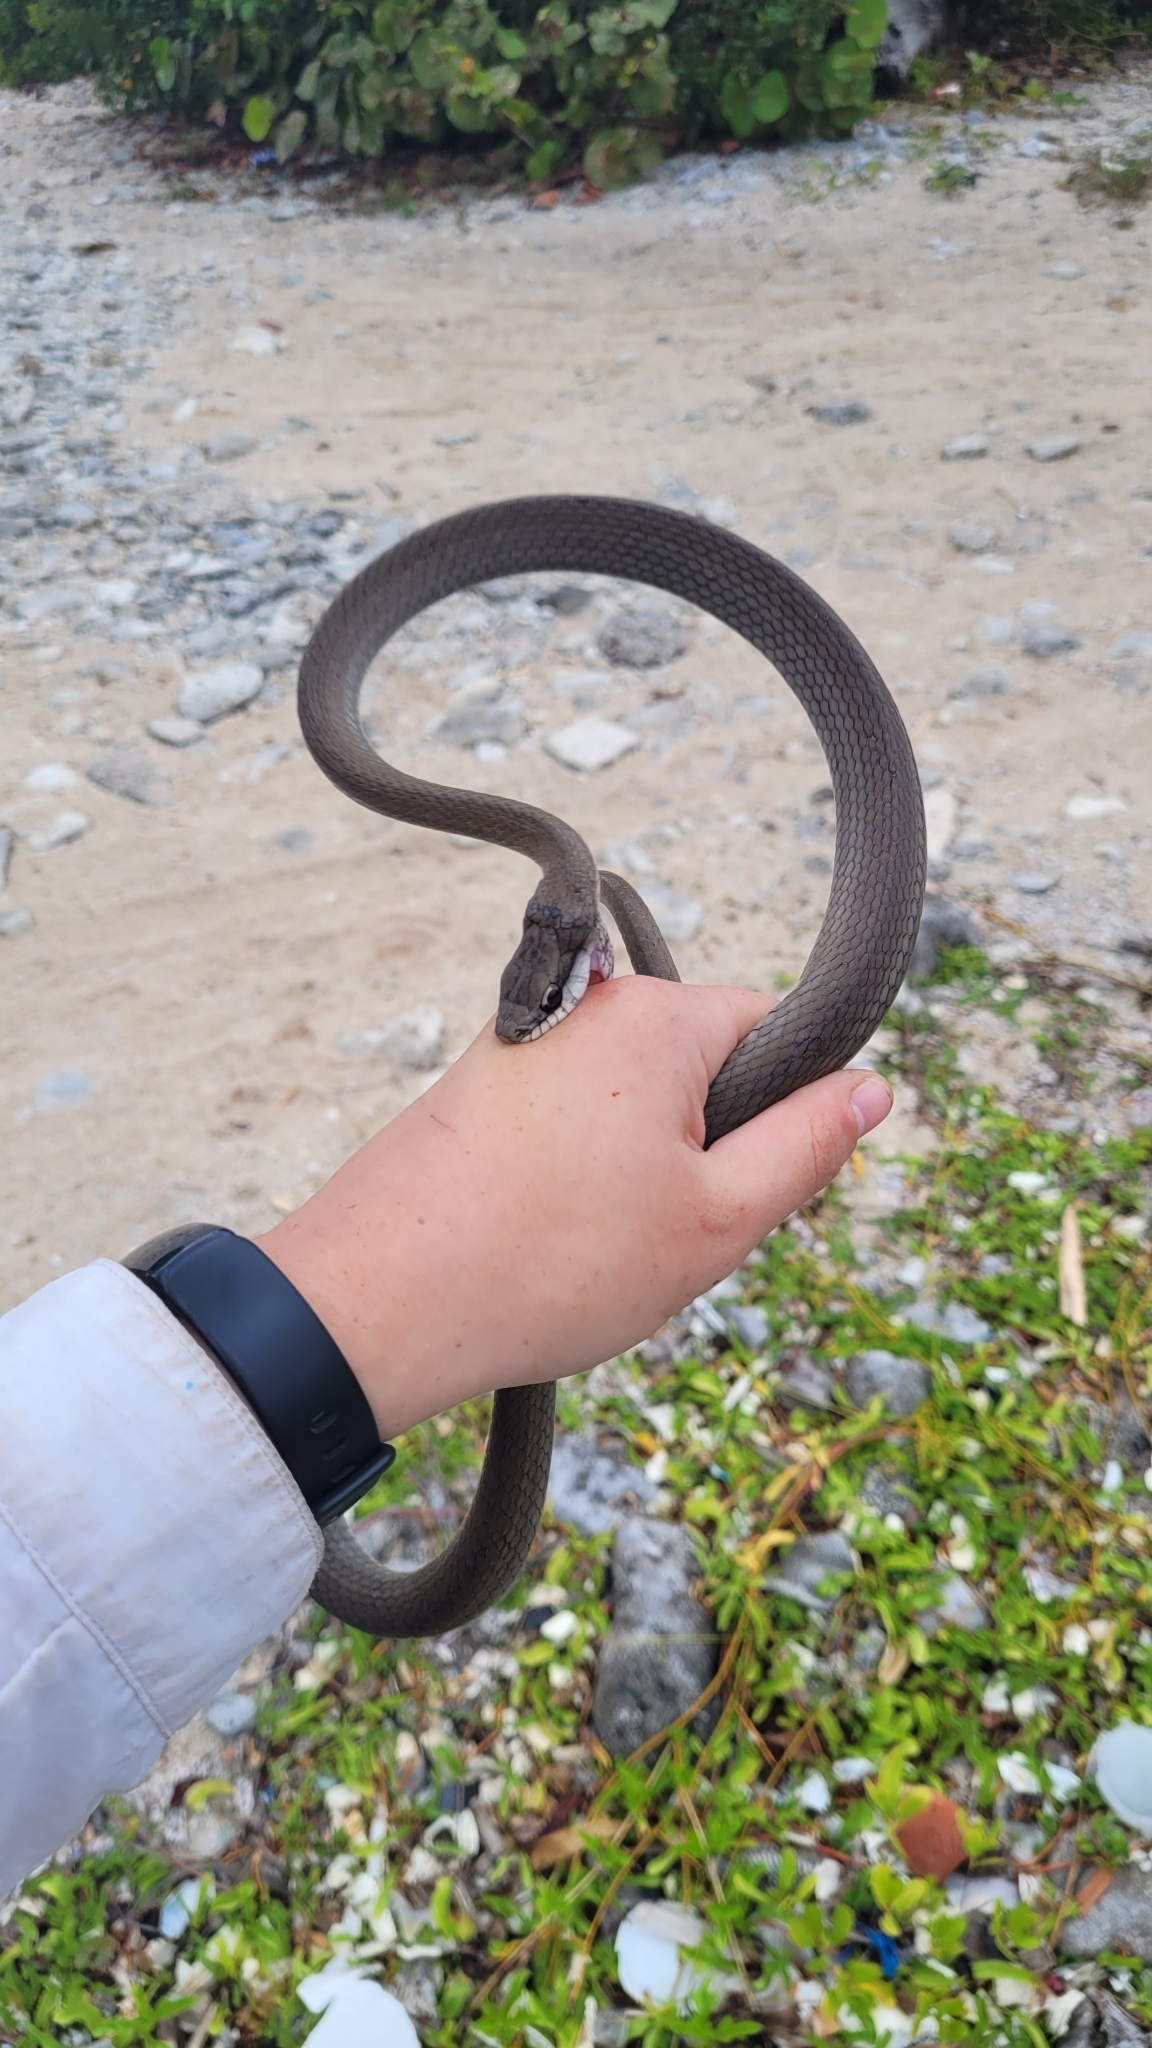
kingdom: Animalia
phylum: Chordata
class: Squamata
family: Colubridae
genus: Mastigodryas
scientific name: Mastigodryas melanolomus
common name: Salmon-bellied racer
